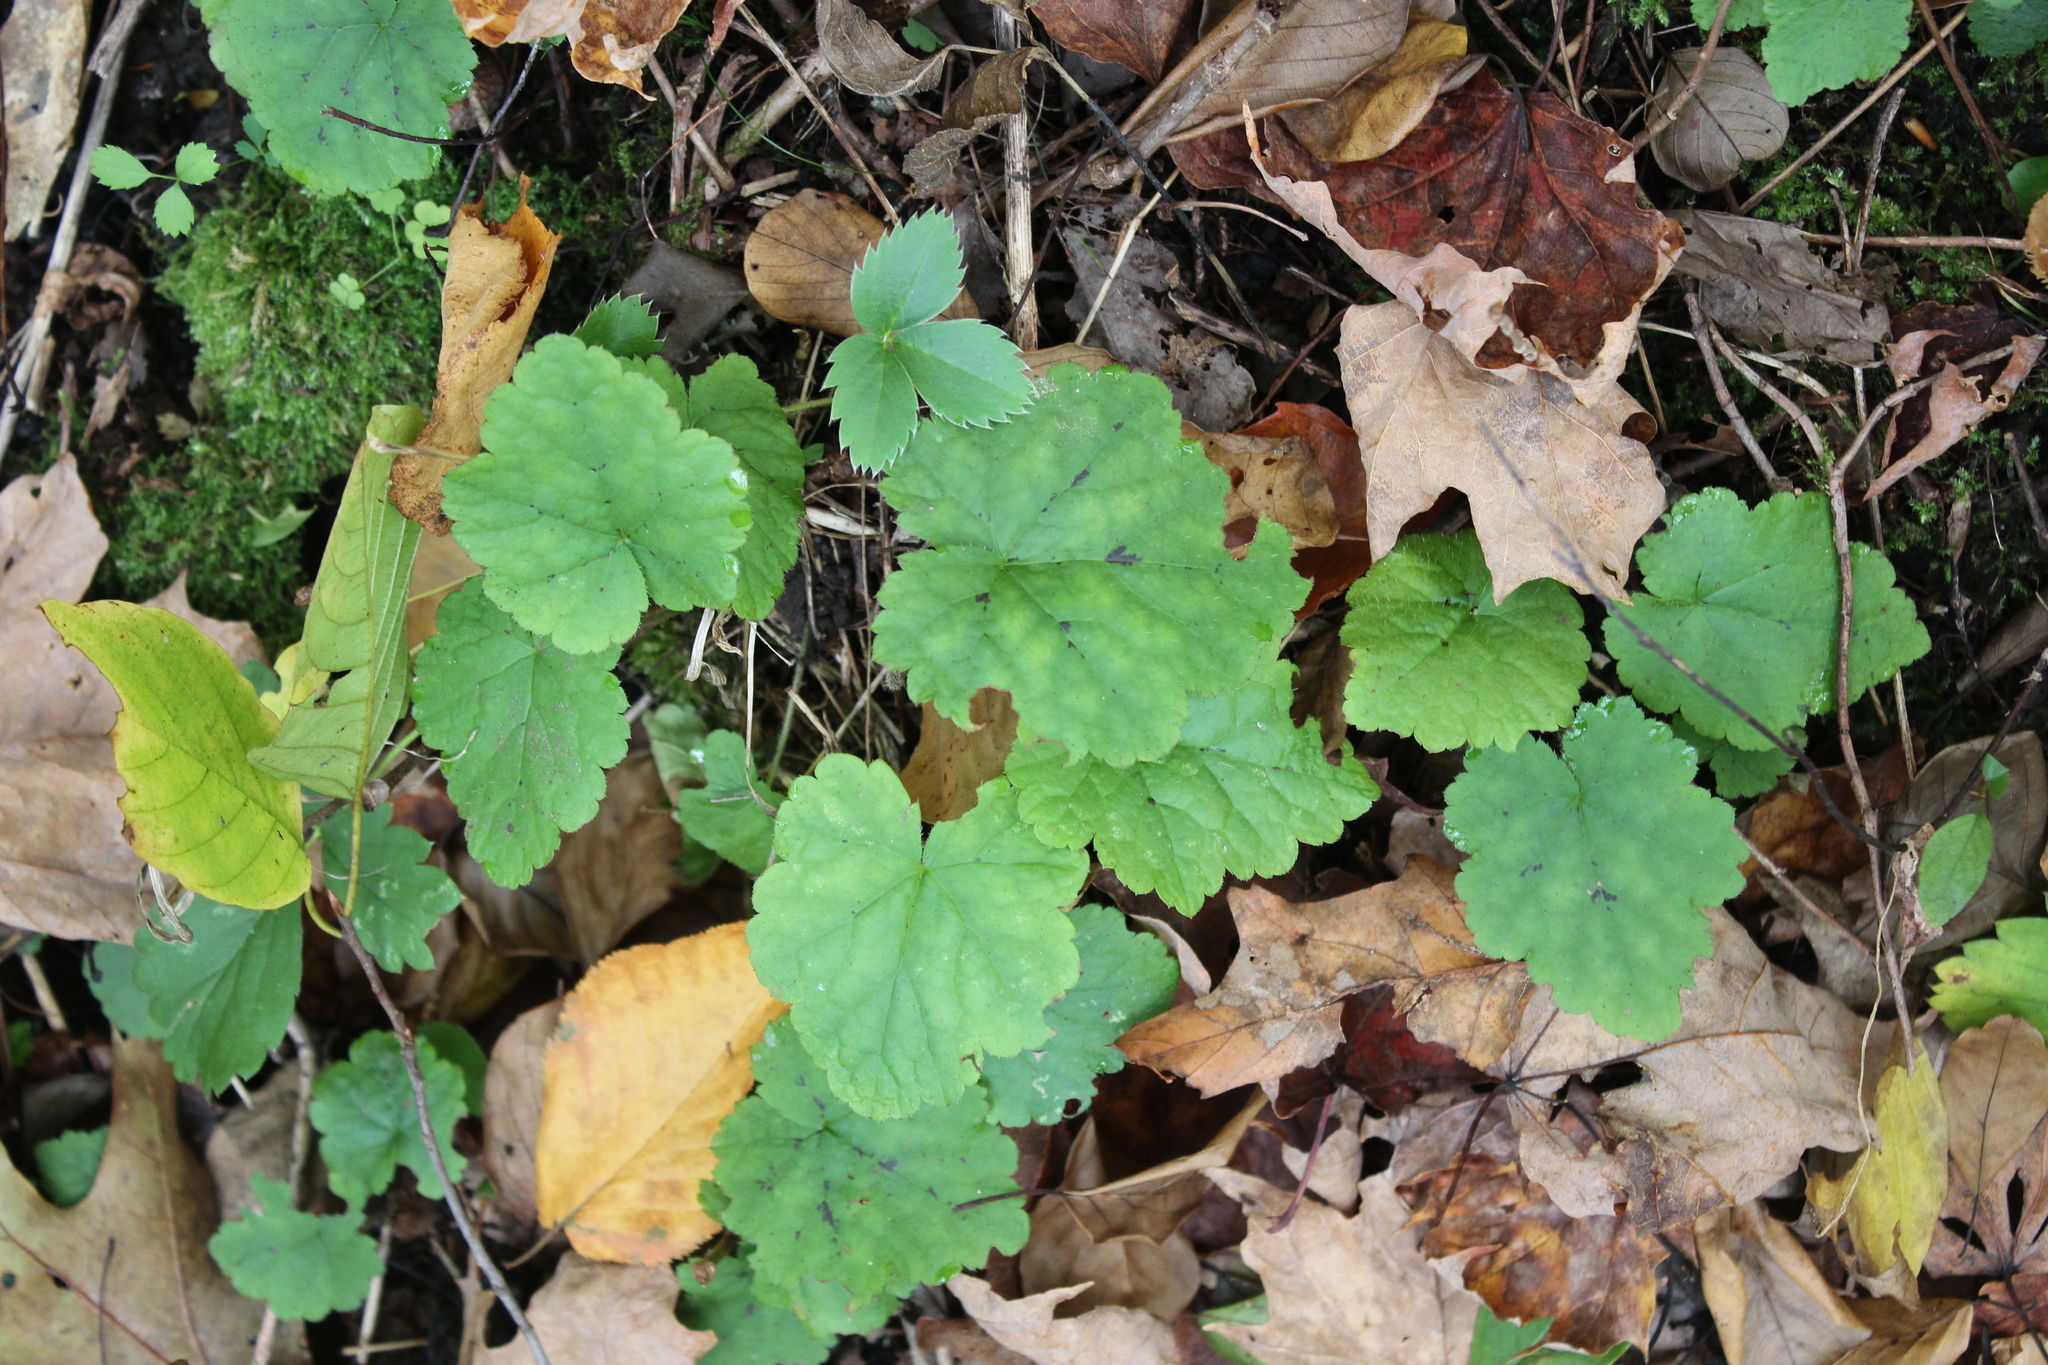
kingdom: Plantae
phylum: Tracheophyta
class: Magnoliopsida
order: Saxifragales
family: Saxifragaceae
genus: Tiarella
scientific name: Tiarella stolonifera
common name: Stoloniferous foamflower
